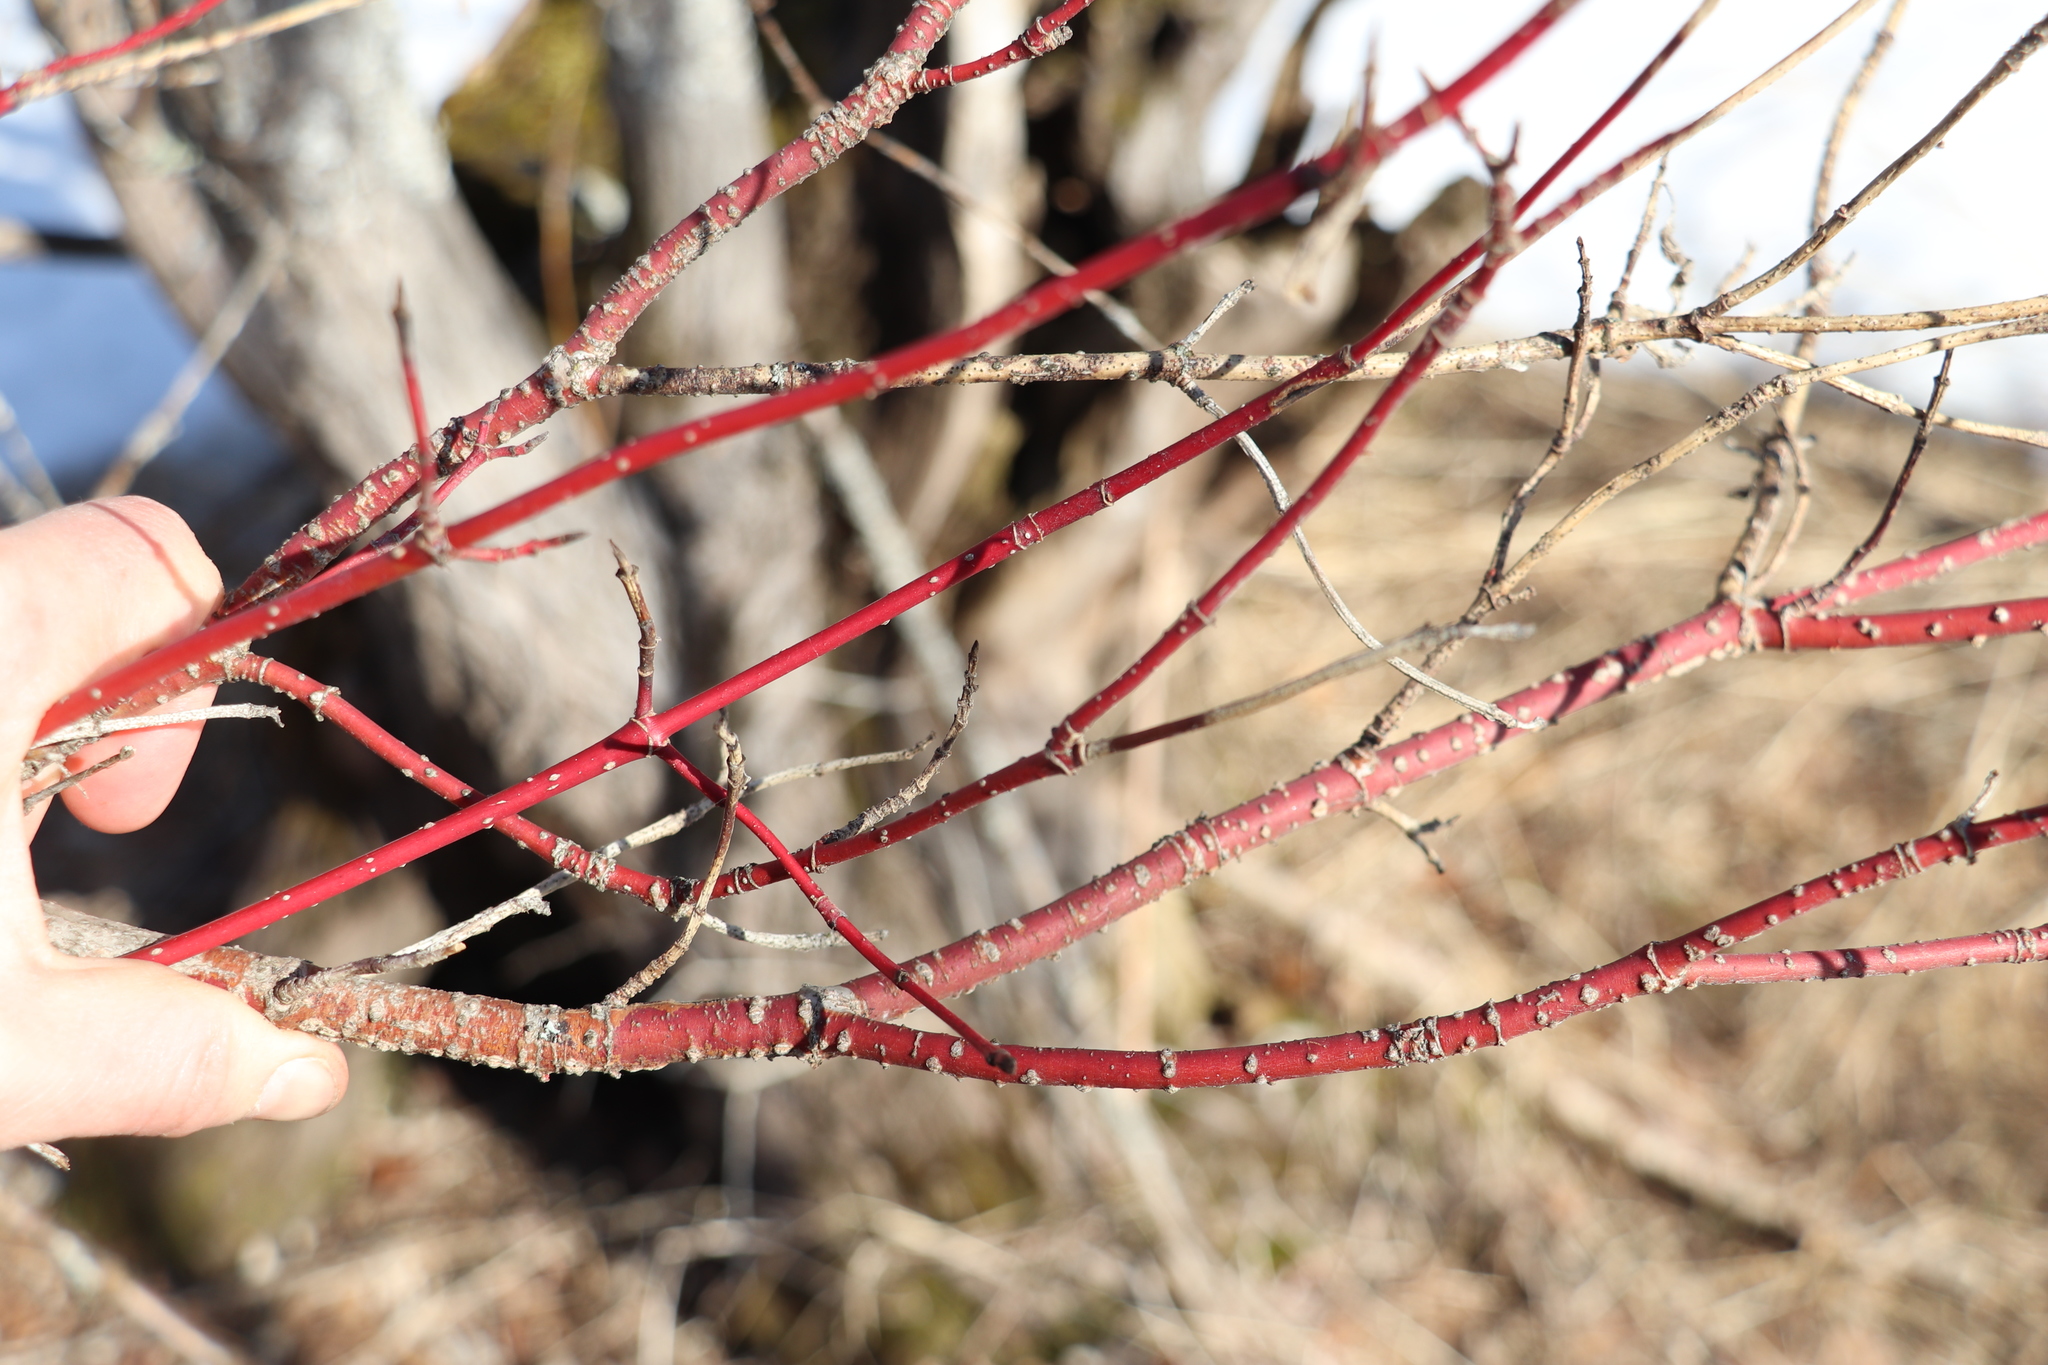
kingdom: Plantae
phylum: Tracheophyta
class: Magnoliopsida
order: Cornales
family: Cornaceae
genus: Cornus
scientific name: Cornus alba
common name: White dogwood
